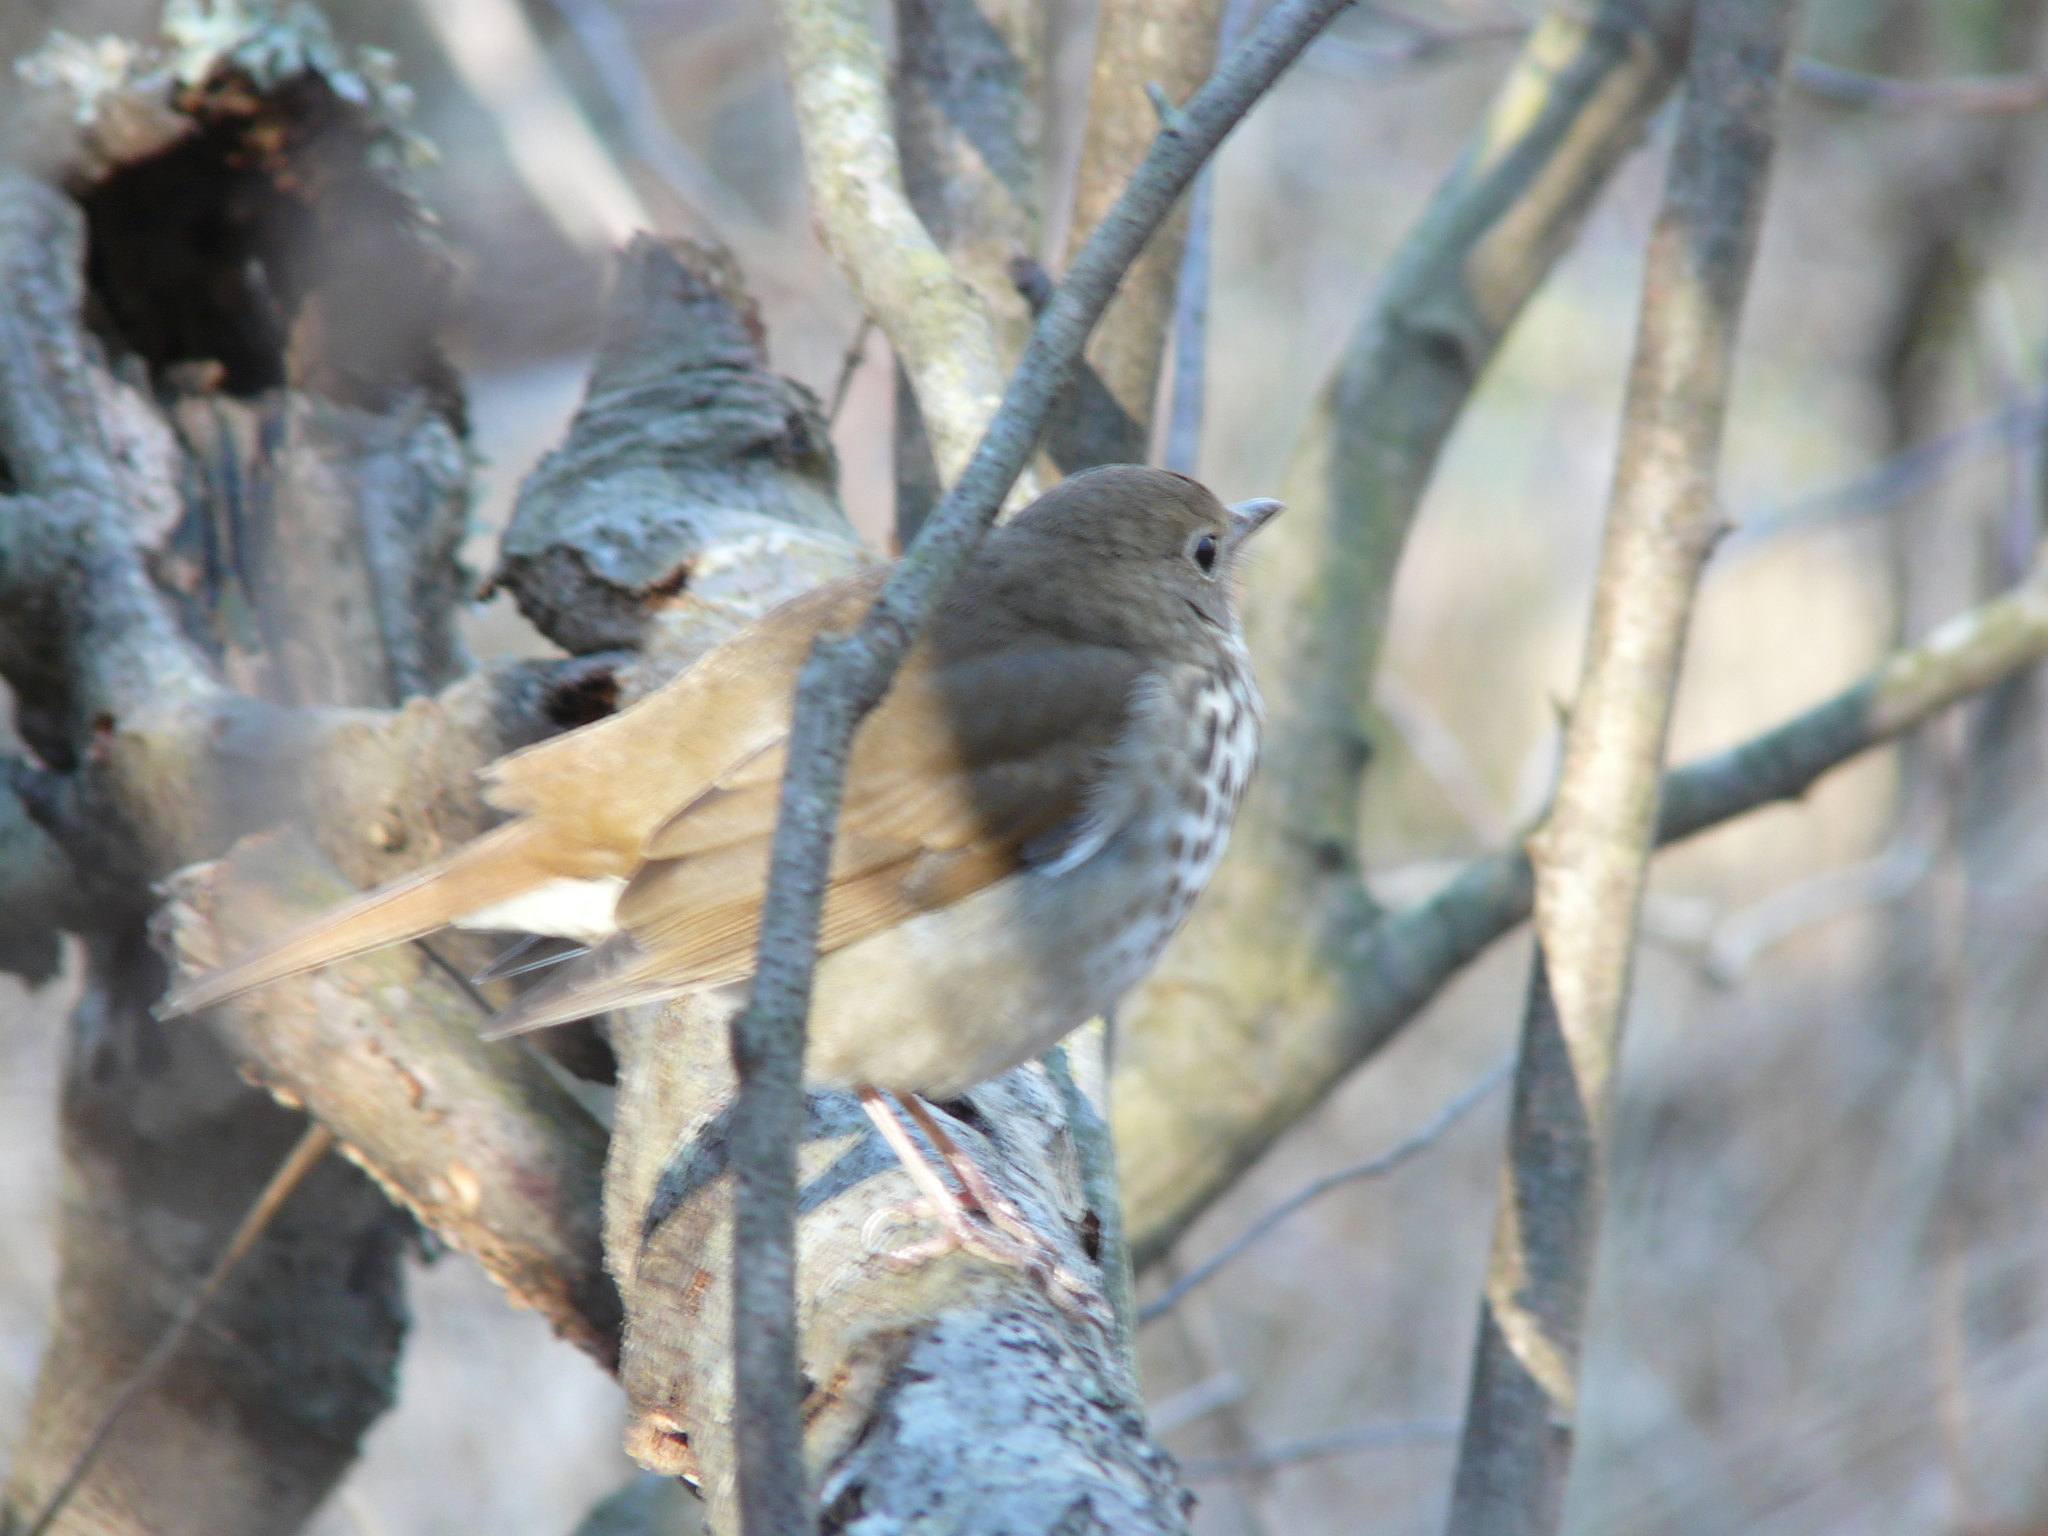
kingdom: Animalia
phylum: Chordata
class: Aves
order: Passeriformes
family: Turdidae
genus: Catharus
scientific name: Catharus guttatus
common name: Hermit thrush
